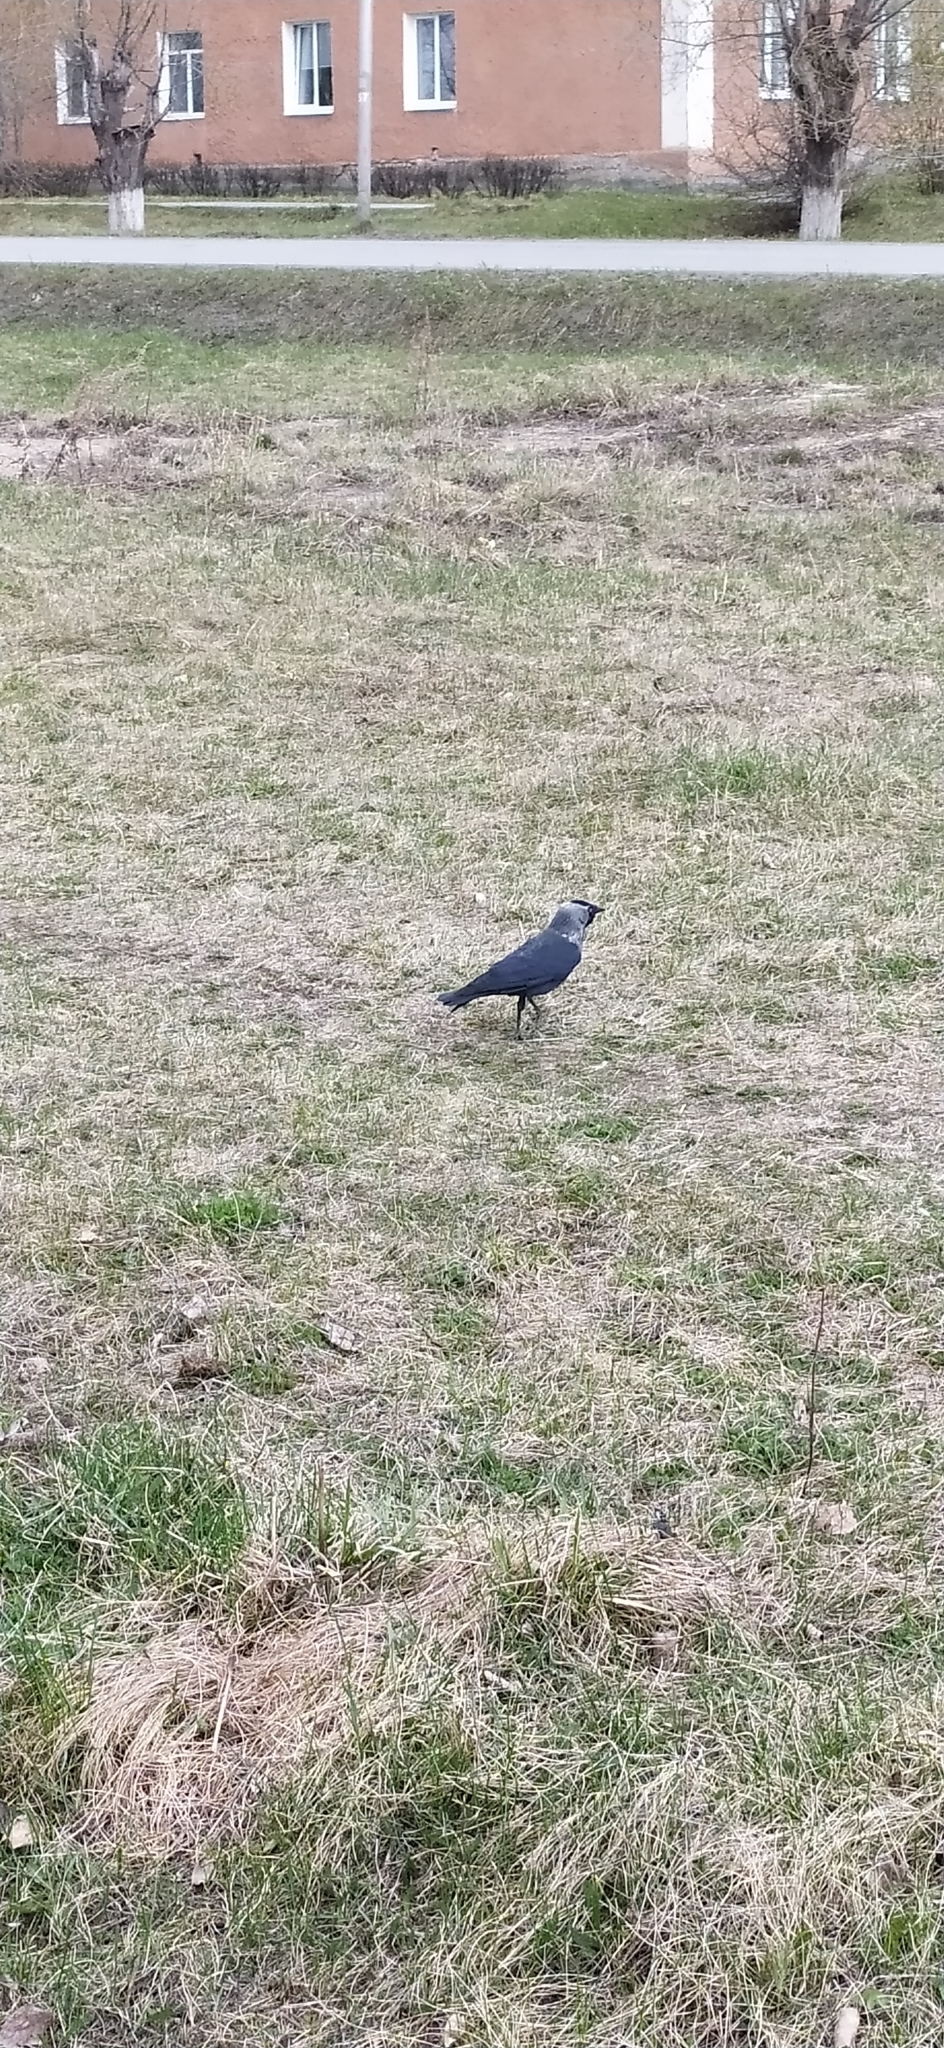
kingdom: Animalia
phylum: Chordata
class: Aves
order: Passeriformes
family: Corvidae
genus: Coloeus
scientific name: Coloeus monedula
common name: Western jackdaw
